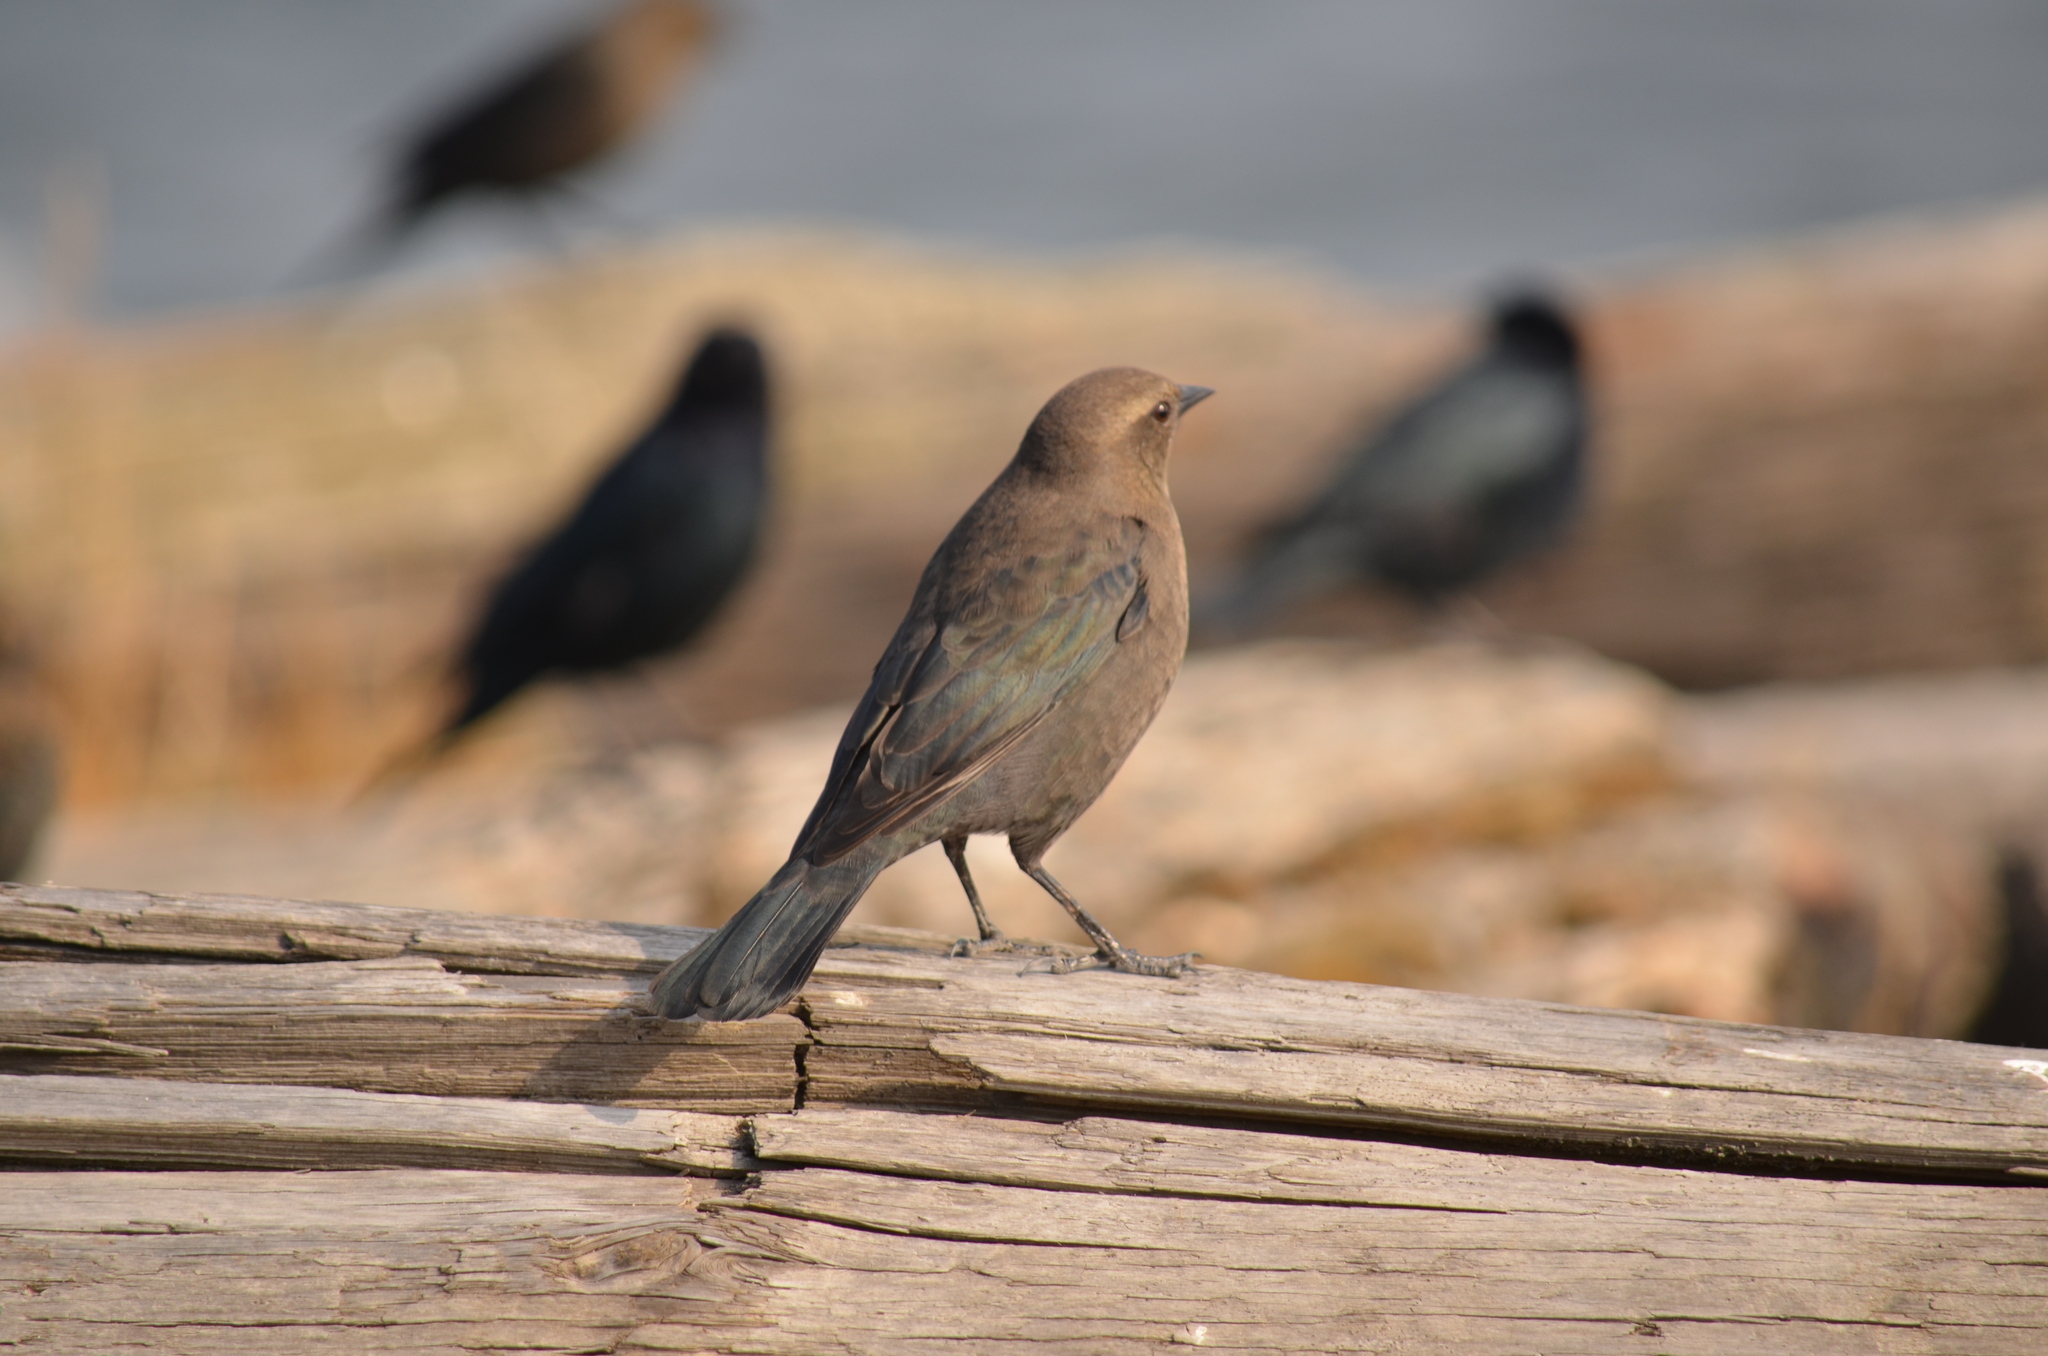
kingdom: Animalia
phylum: Chordata
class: Aves
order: Passeriformes
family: Icteridae
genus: Euphagus
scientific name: Euphagus cyanocephalus
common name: Brewer's blackbird
